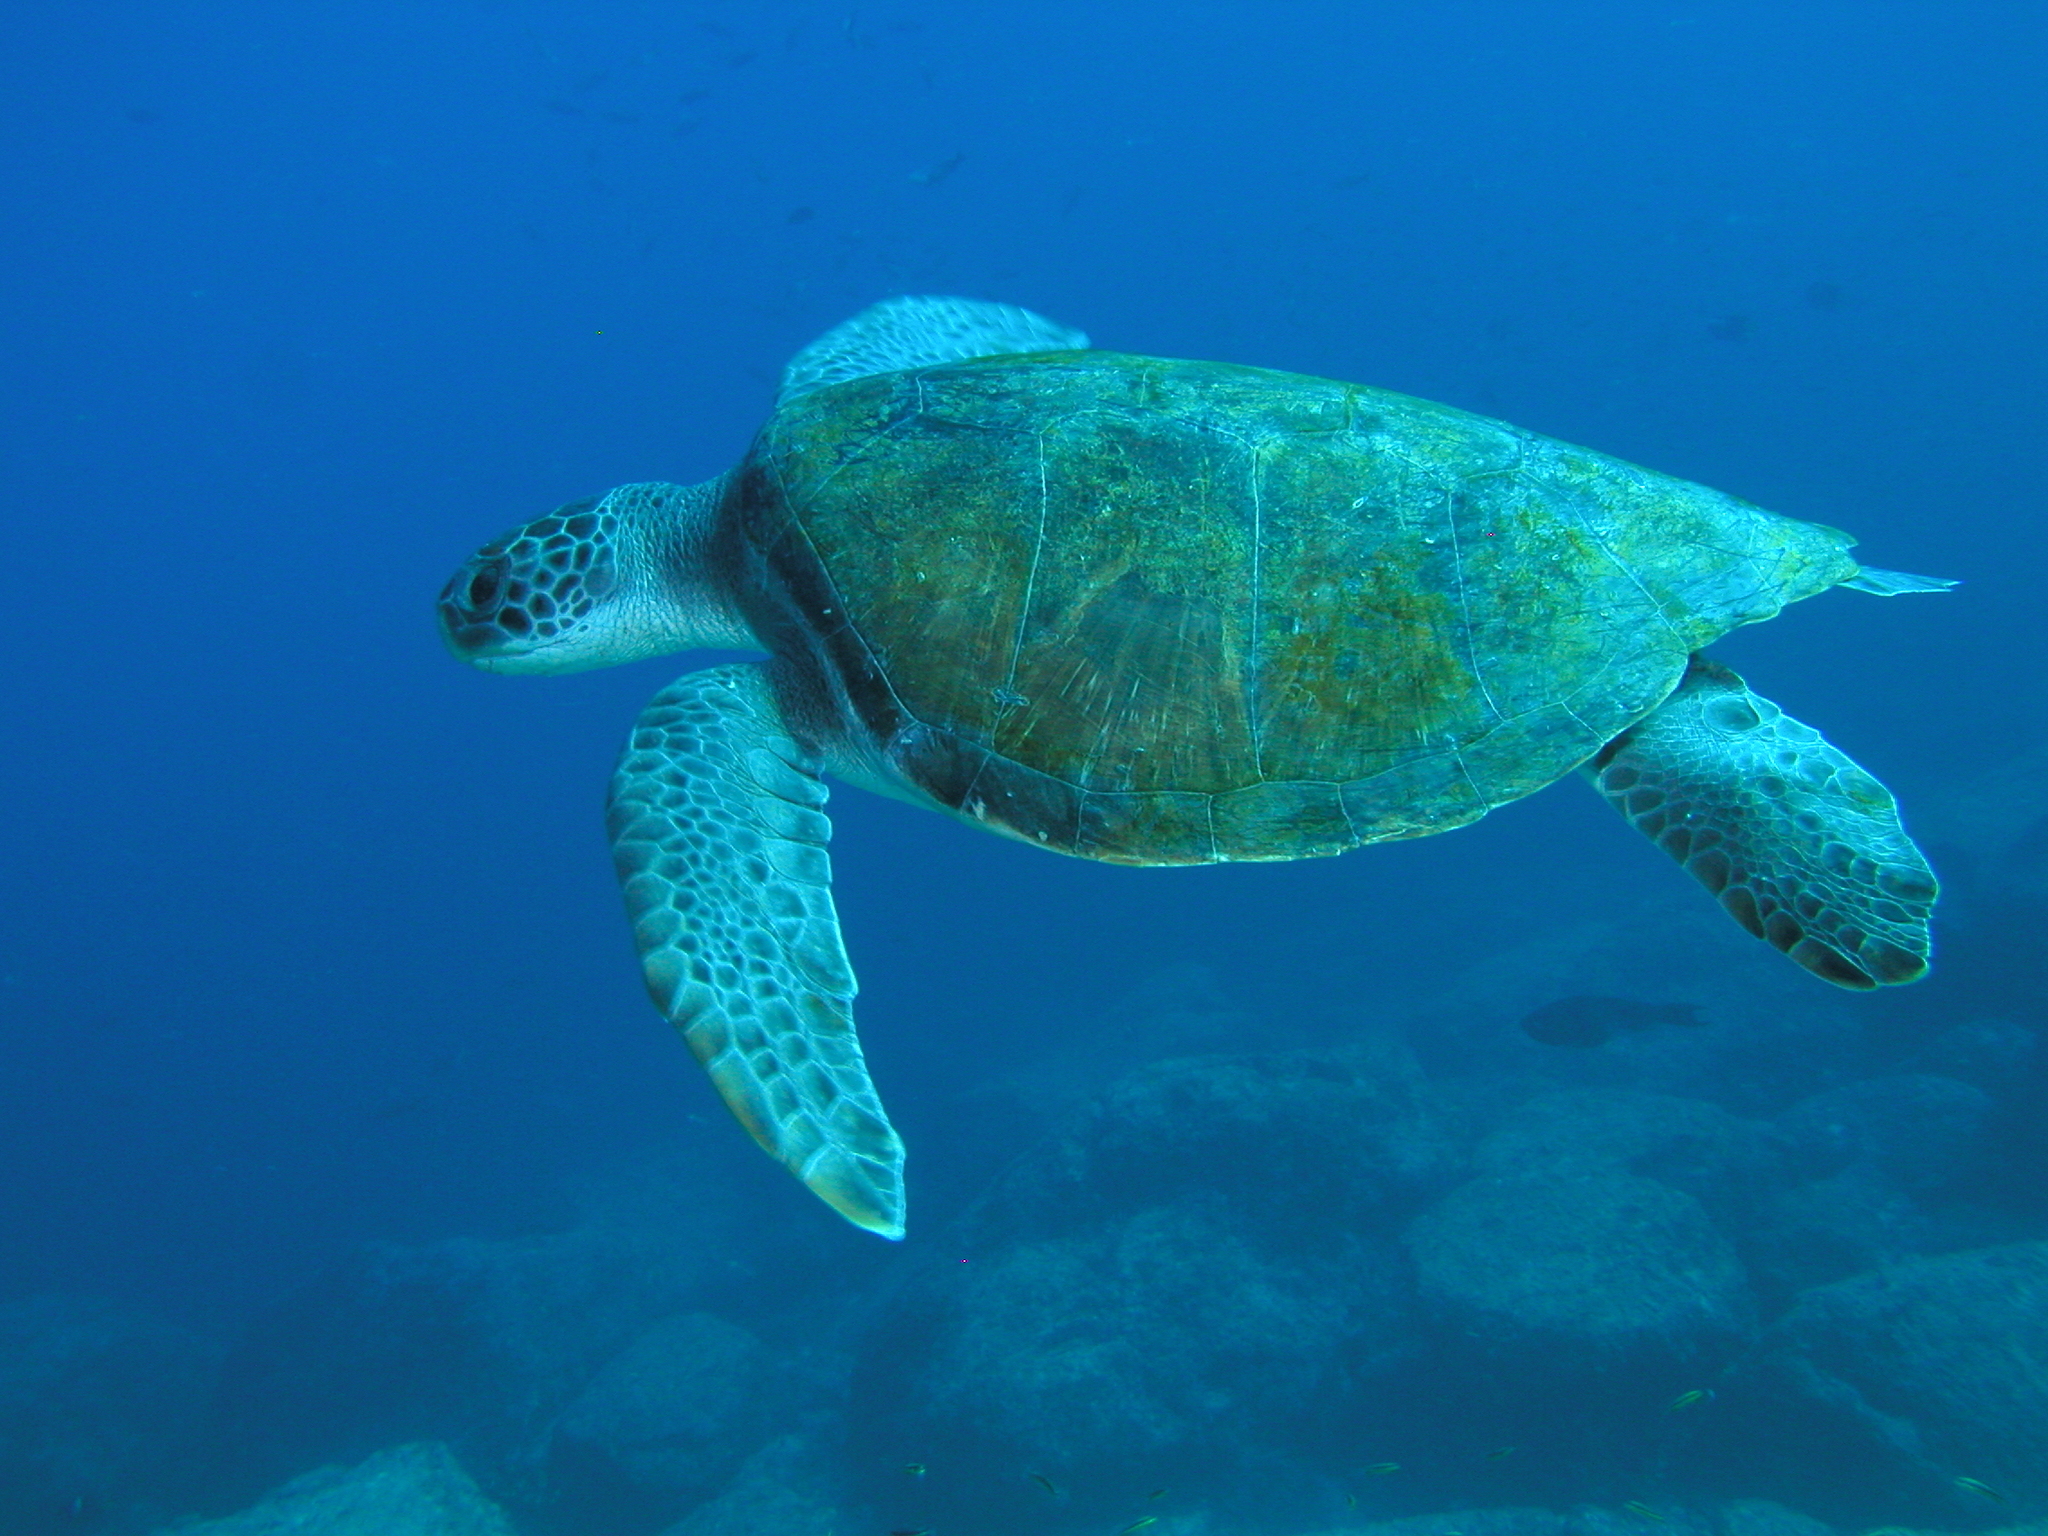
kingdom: Animalia
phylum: Chordata
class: Testudines
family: Cheloniidae
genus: Chelonia
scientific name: Chelonia mydas
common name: Green turtle
